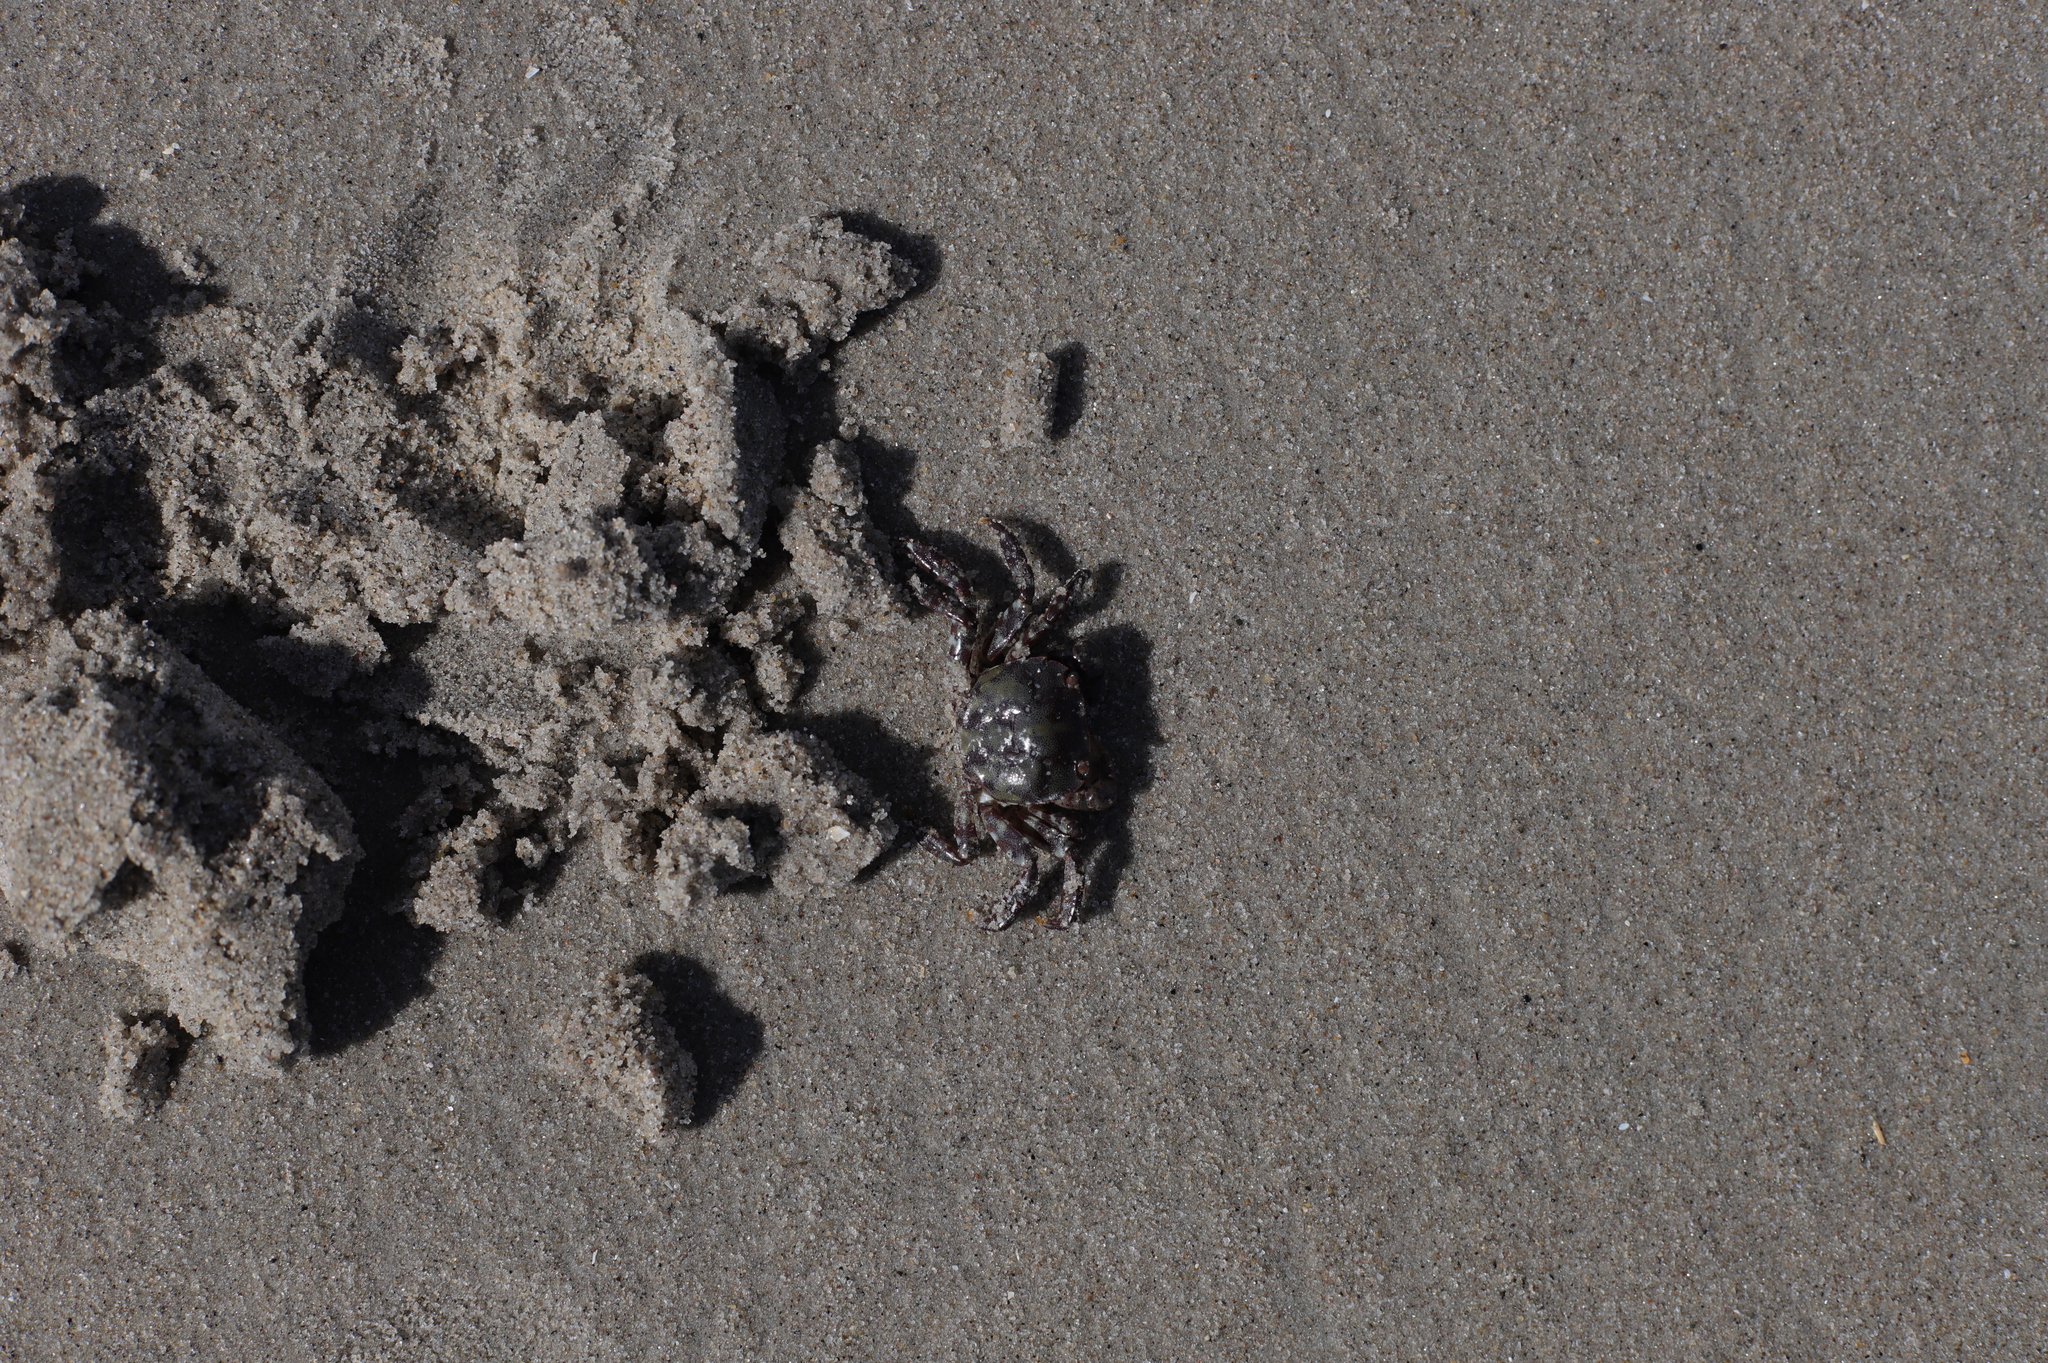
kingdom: Animalia
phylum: Arthropoda
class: Malacostraca
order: Decapoda
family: Varunidae
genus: Hemigrapsus
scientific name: Hemigrapsus sanguineus
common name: Asian shore crab
